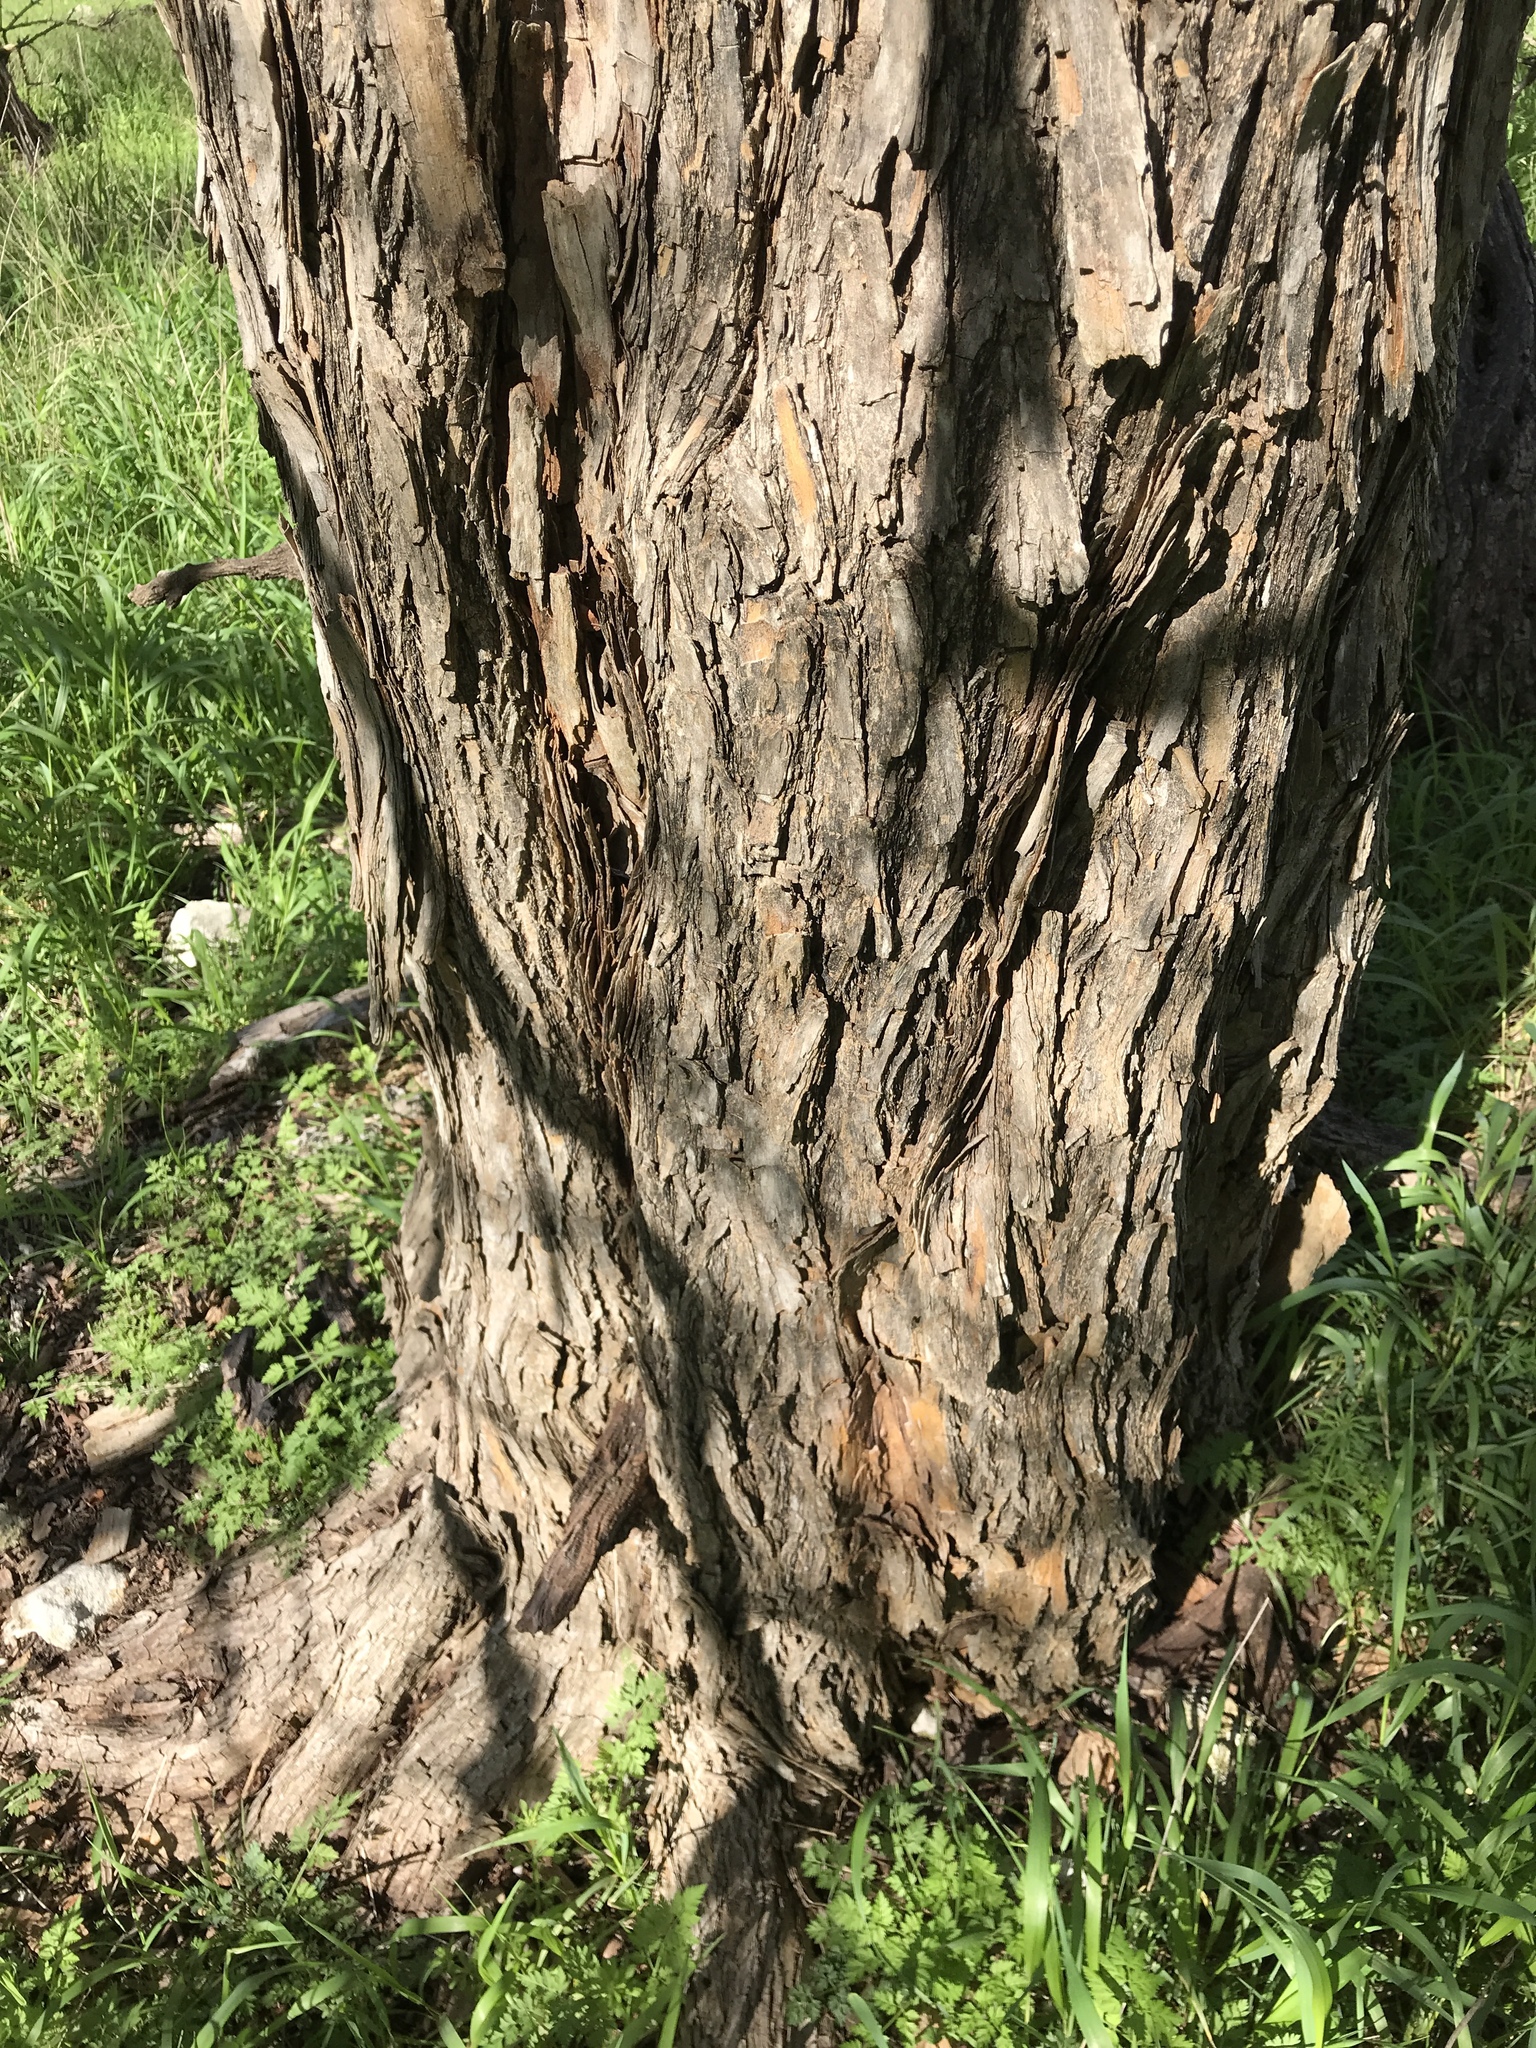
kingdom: Plantae
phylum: Tracheophyta
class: Magnoliopsida
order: Rosales
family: Moraceae
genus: Maclura
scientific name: Maclura pomifera
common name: Osage-orange
